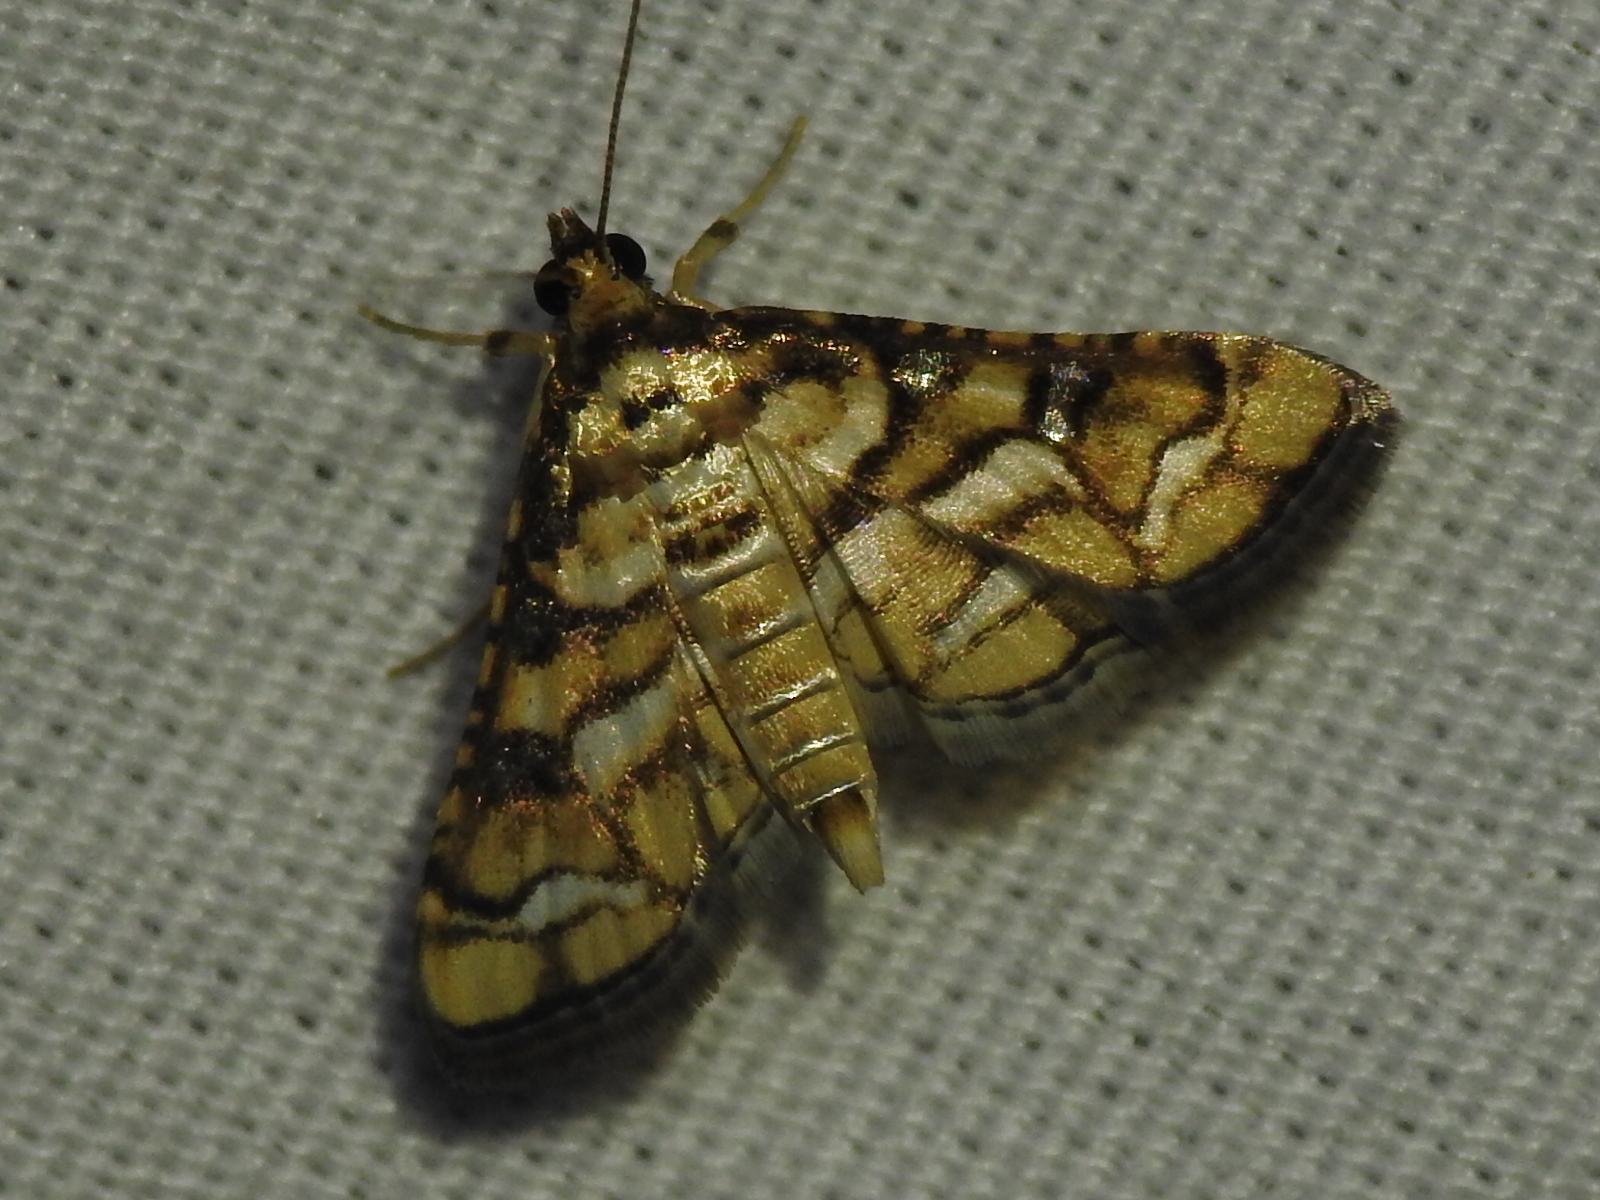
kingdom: Animalia
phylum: Arthropoda
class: Insecta
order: Lepidoptera
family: Crambidae
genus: Hileithia
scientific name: Hileithia magualis
